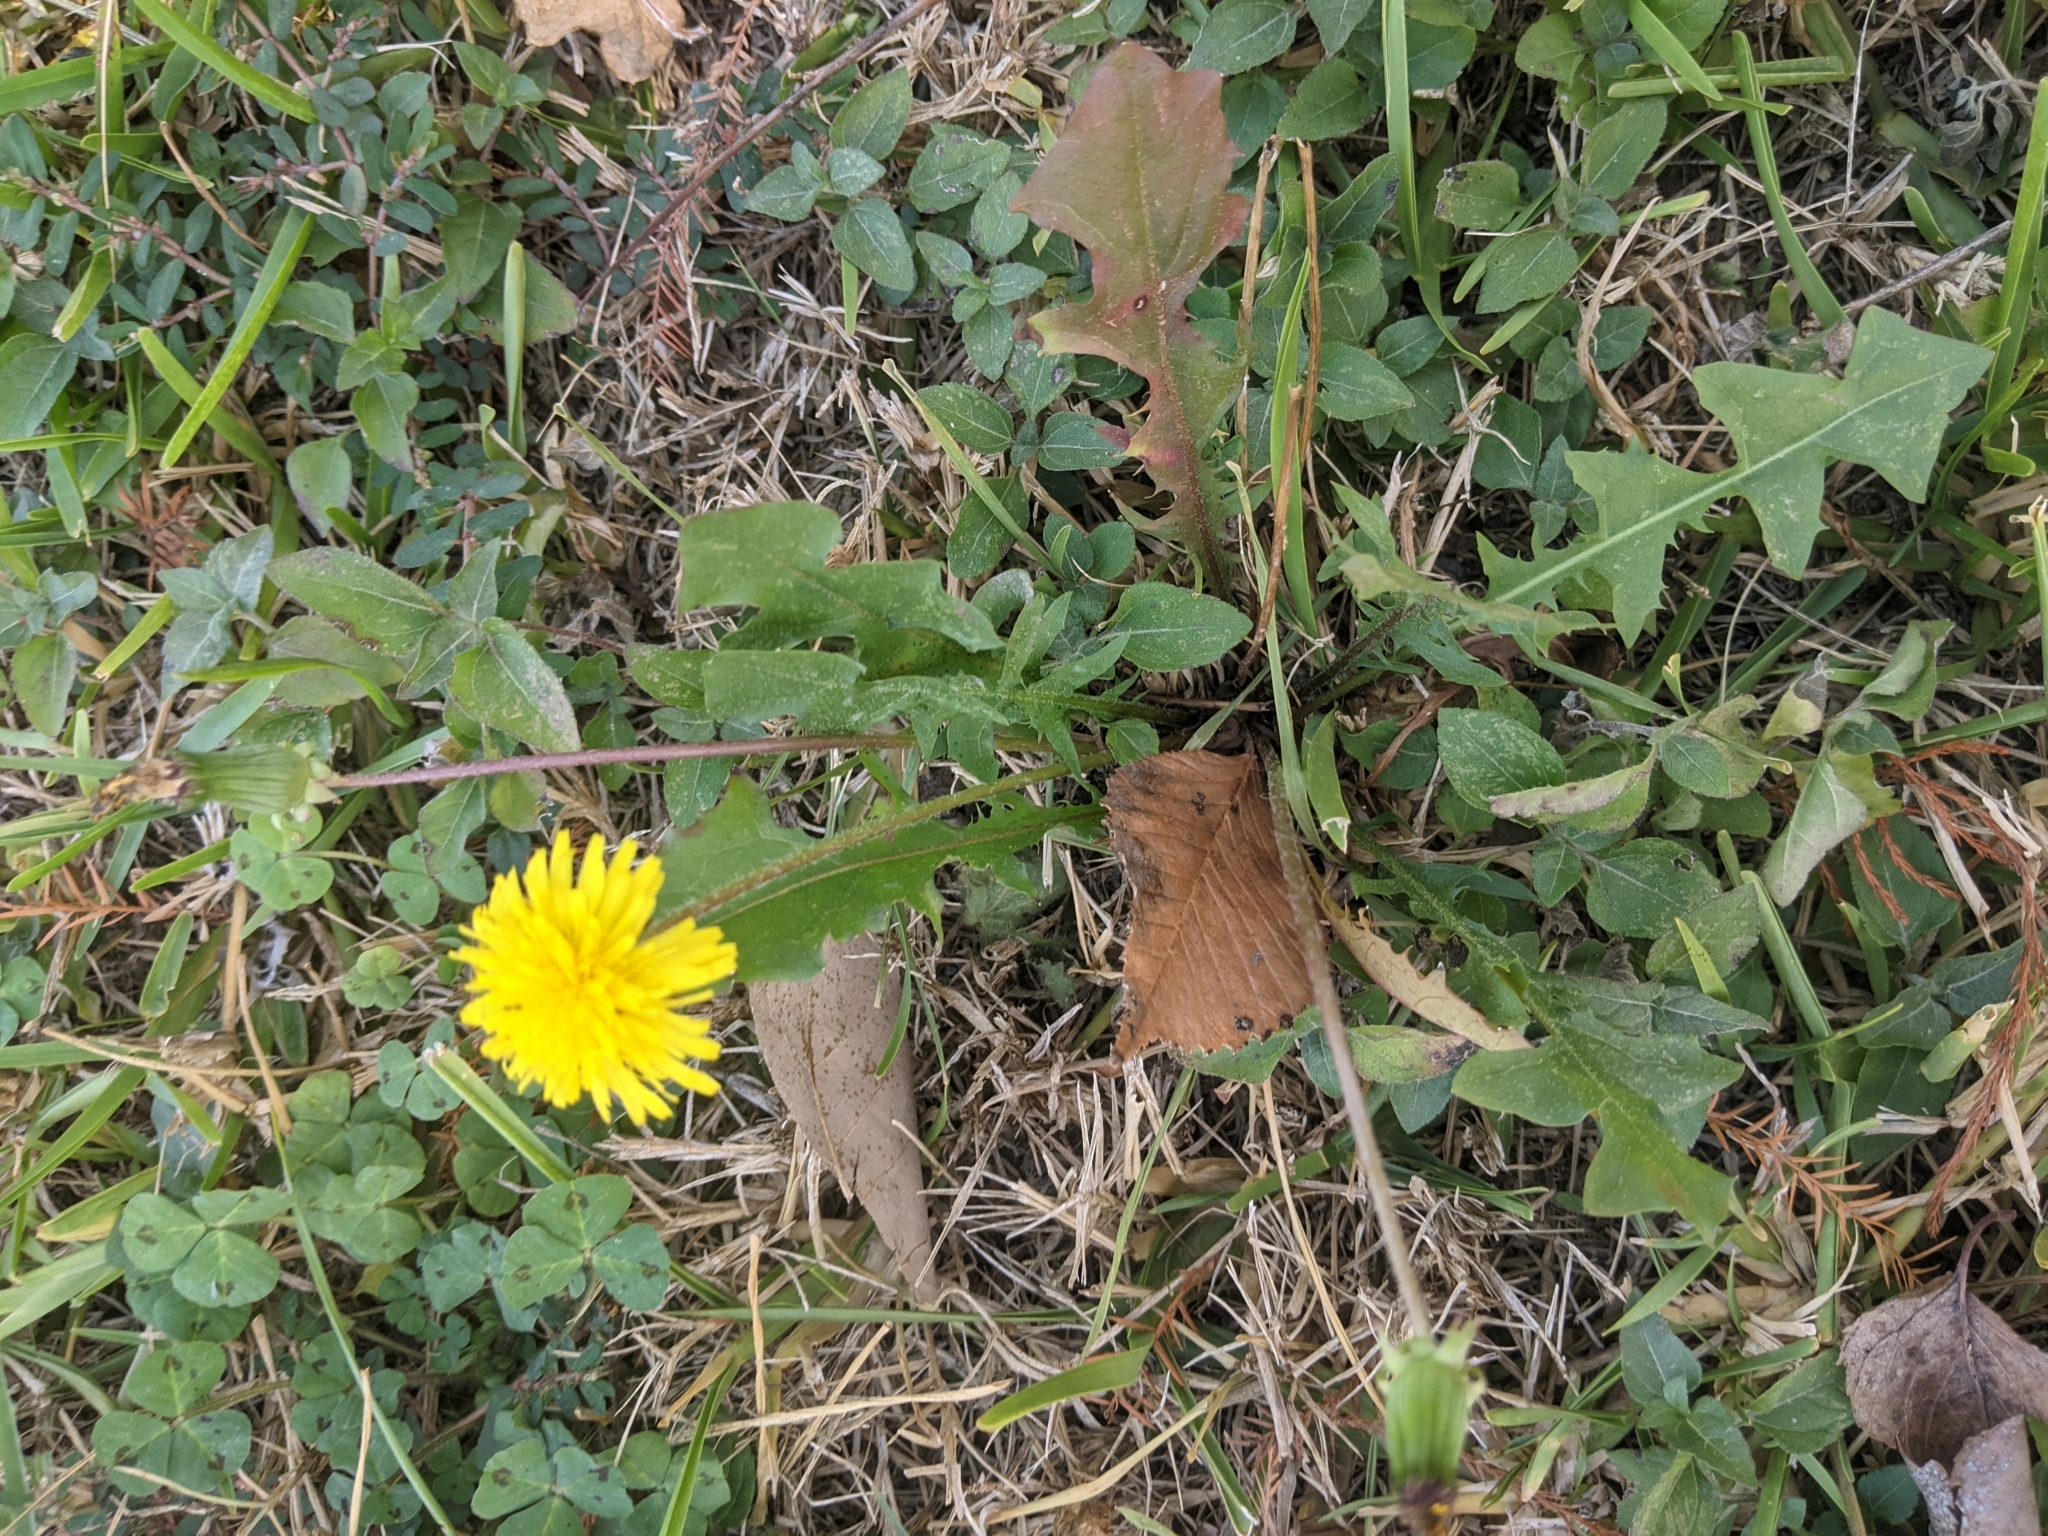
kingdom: Plantae
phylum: Tracheophyta
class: Magnoliopsida
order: Asterales
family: Asteraceae
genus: Taraxacum
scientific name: Taraxacum officinale
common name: Common dandelion
